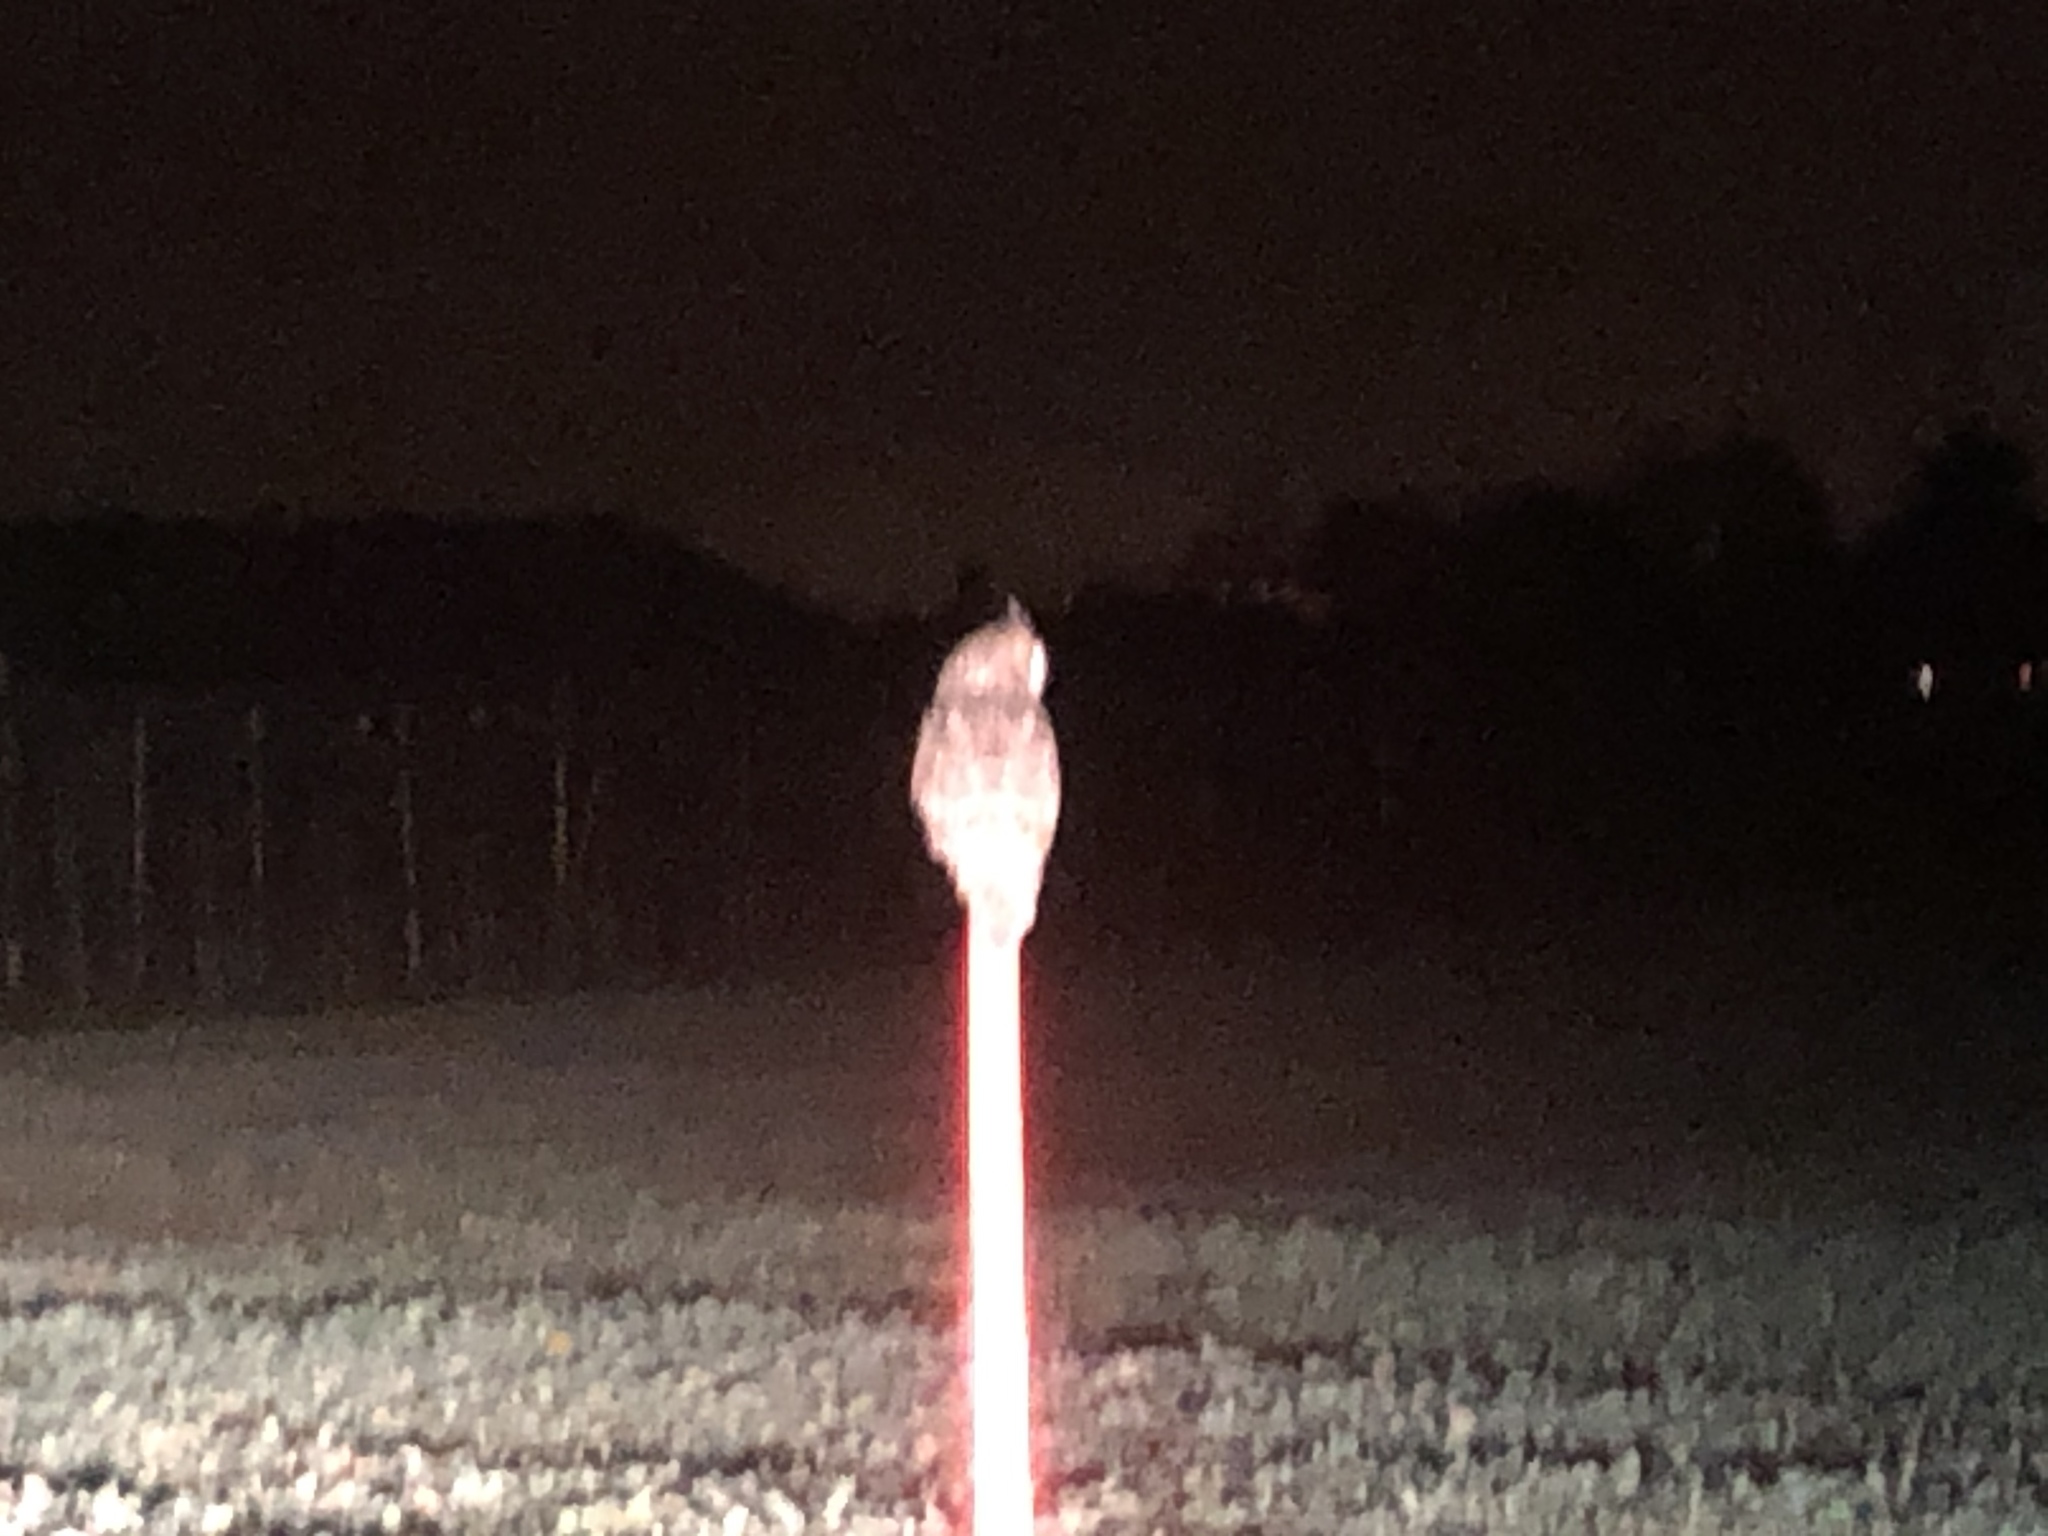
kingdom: Animalia
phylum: Chordata
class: Aves
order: Strigiformes
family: Strigidae
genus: Asio
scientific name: Asio otus
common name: Long-eared owl
